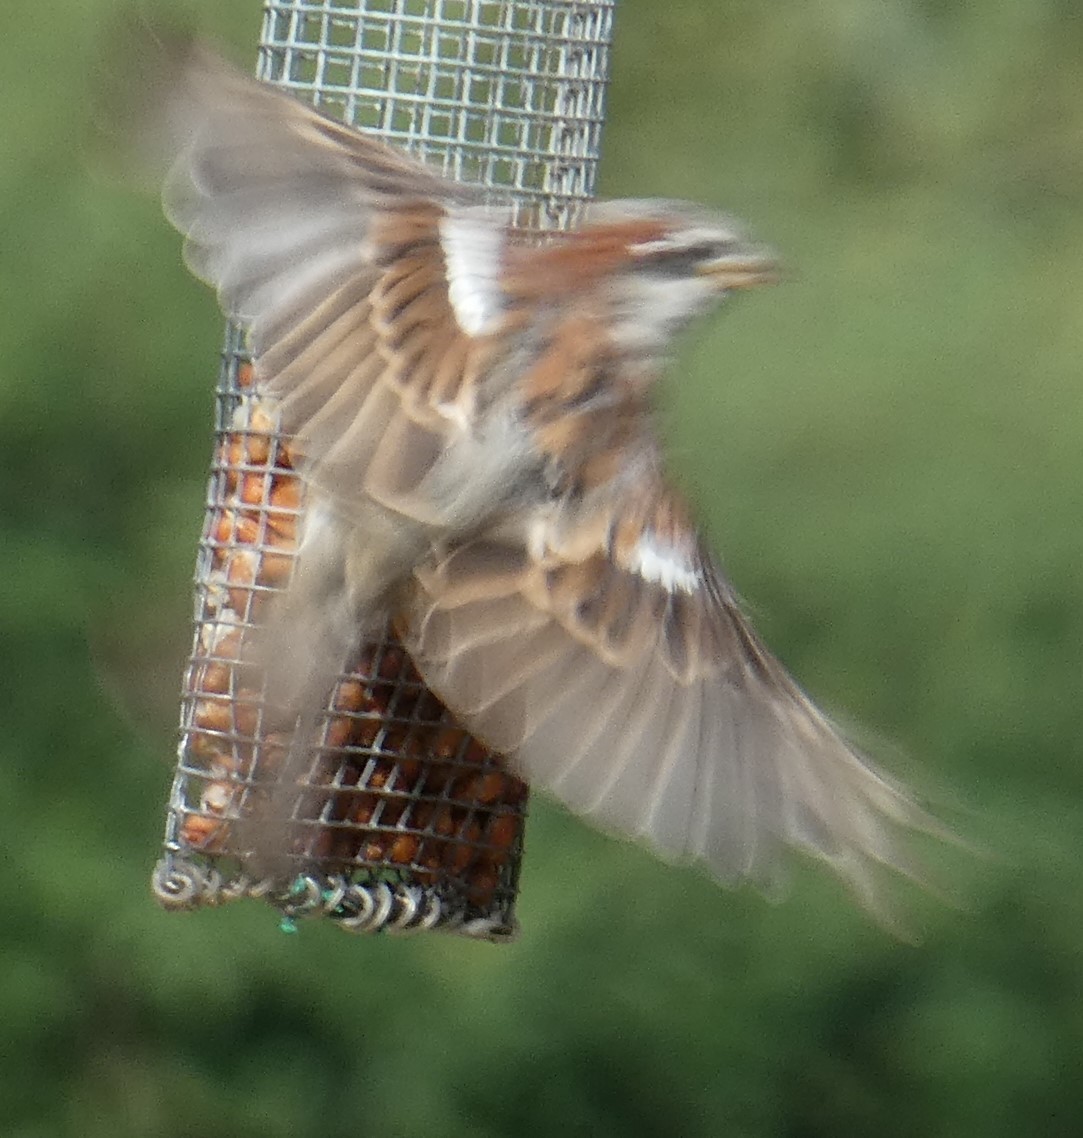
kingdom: Animalia
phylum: Chordata
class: Aves
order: Passeriformes
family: Passeridae
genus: Passer
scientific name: Passer domesticus
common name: House sparrow
